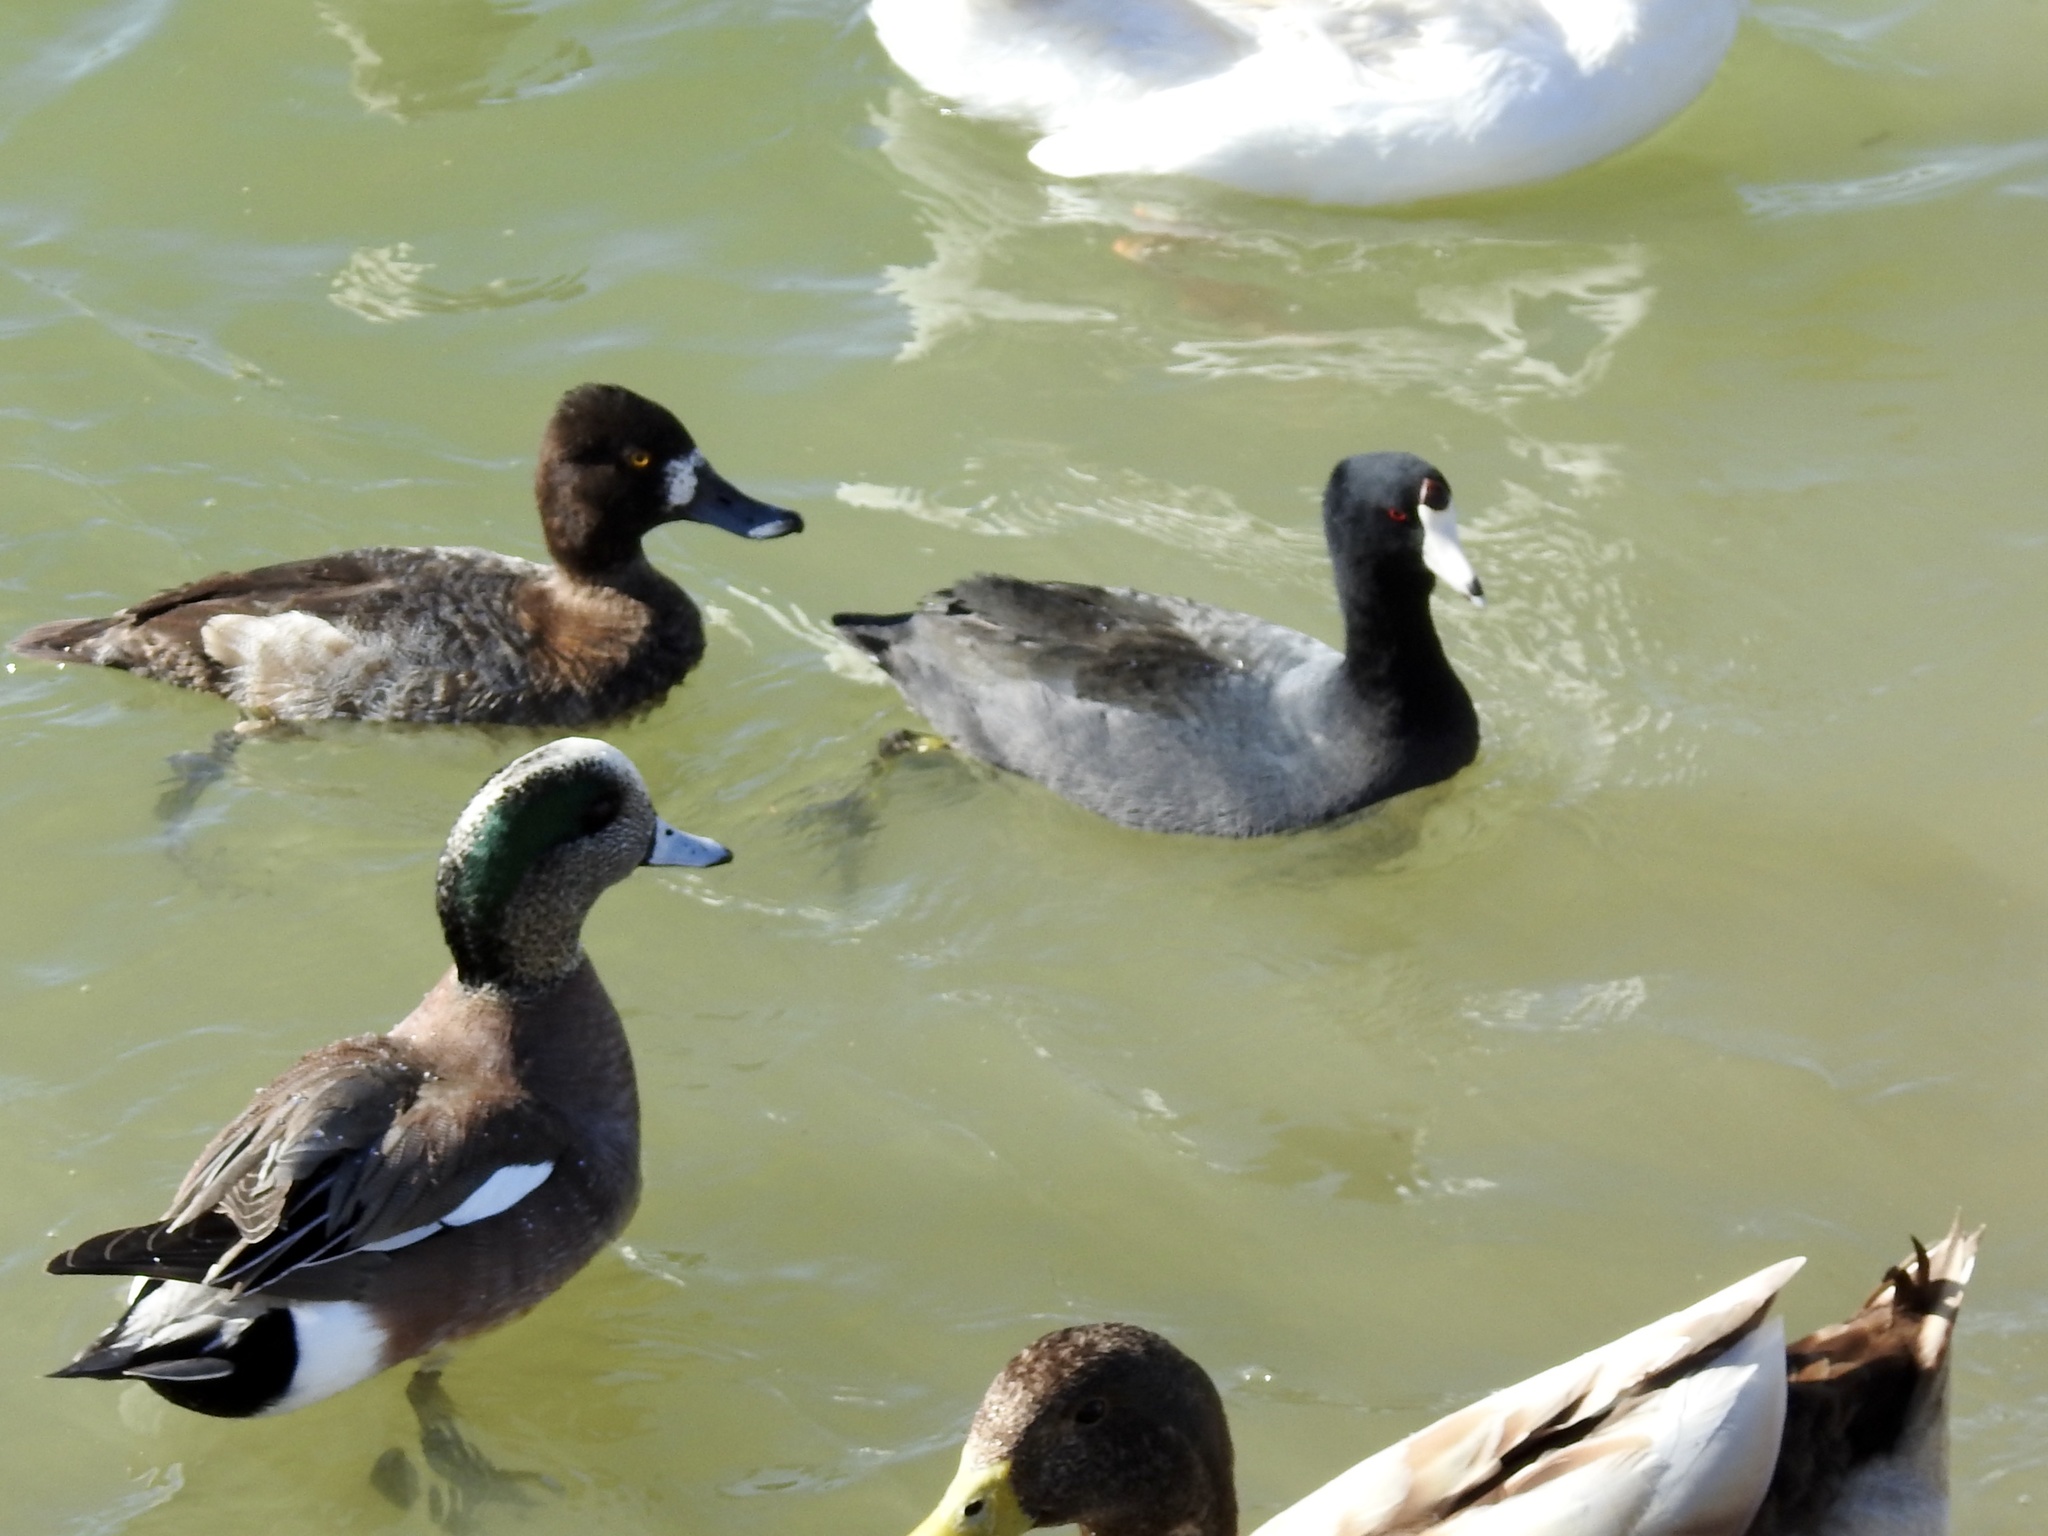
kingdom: Animalia
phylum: Chordata
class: Aves
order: Gruiformes
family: Rallidae
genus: Fulica
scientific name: Fulica americana
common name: American coot
